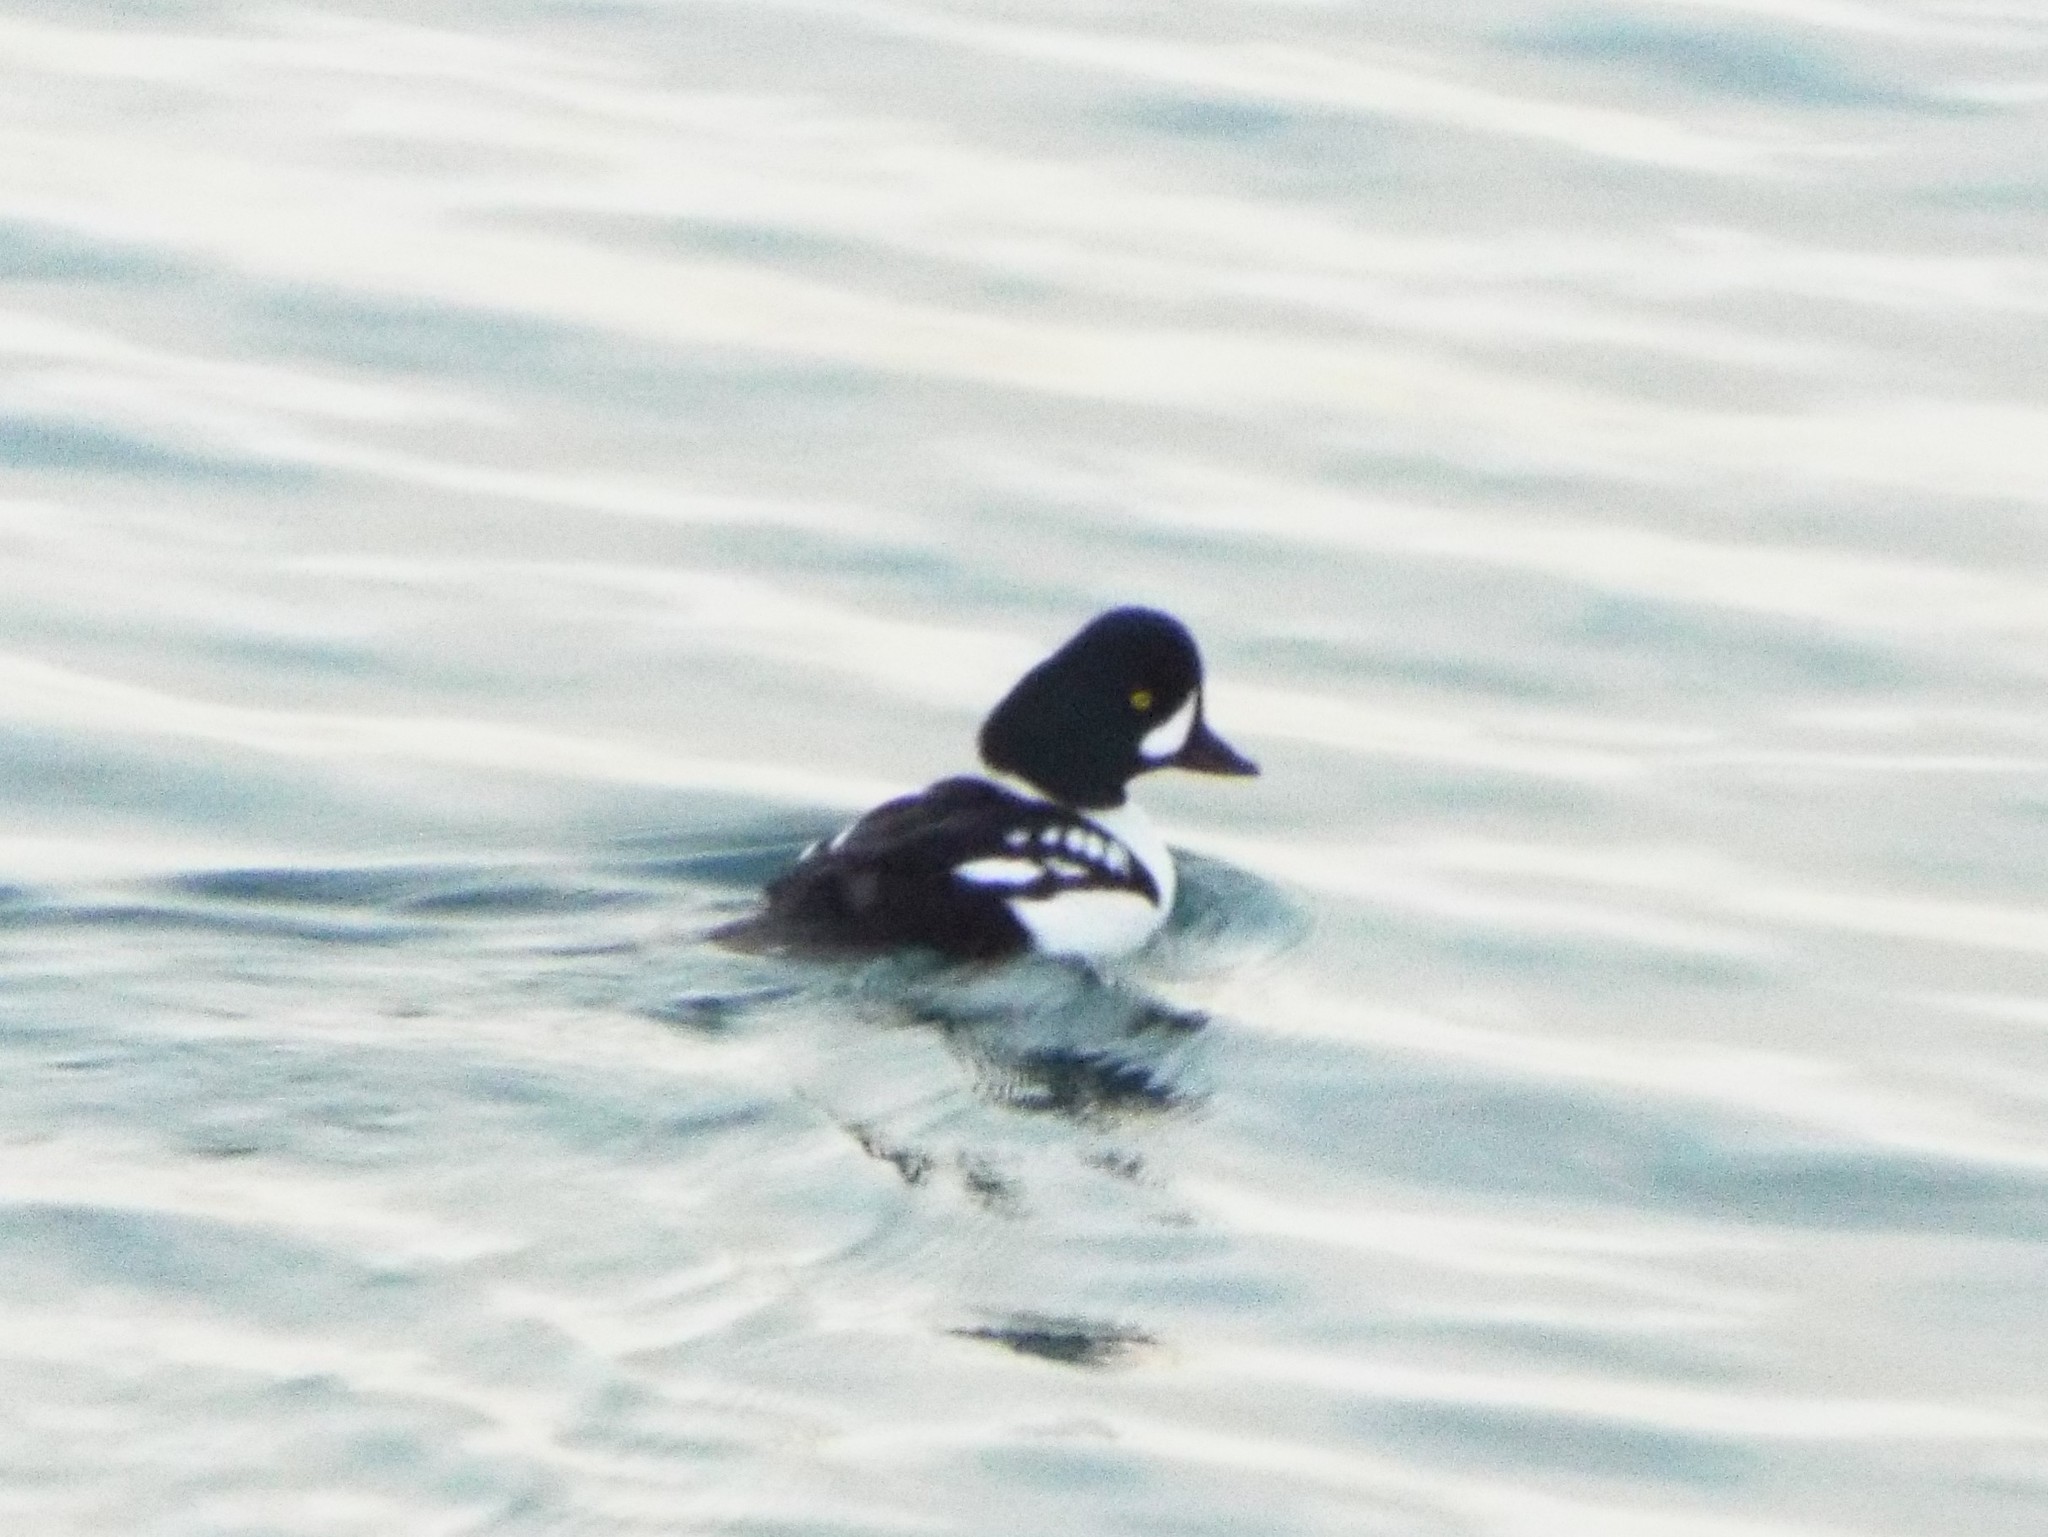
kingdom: Animalia
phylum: Chordata
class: Aves
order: Anseriformes
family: Anatidae
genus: Bucephala
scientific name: Bucephala islandica
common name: Barrow's goldeneye
